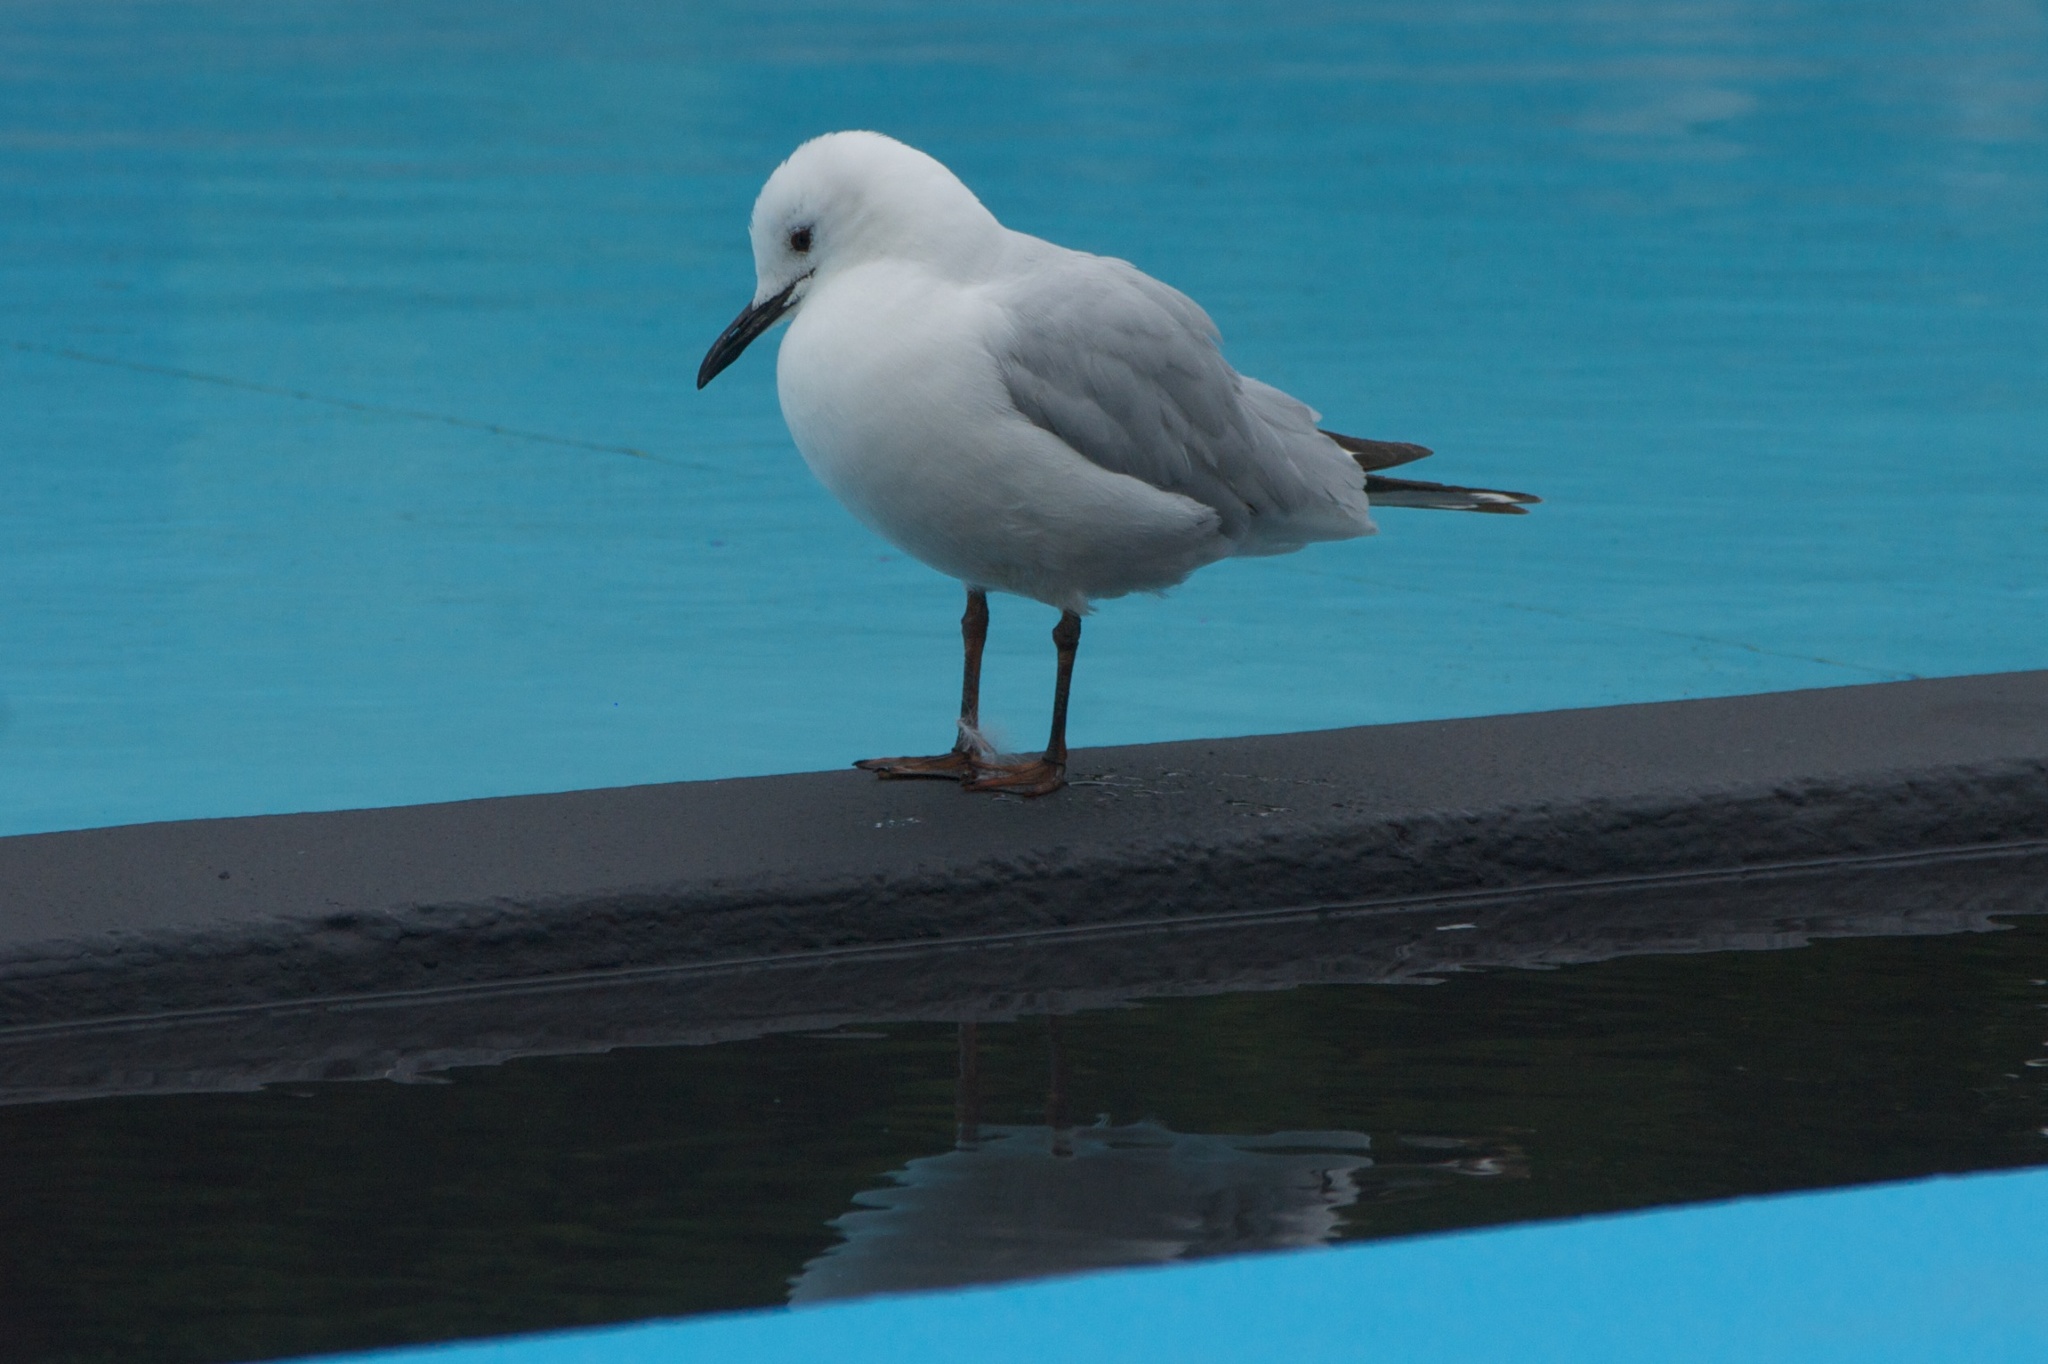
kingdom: Animalia
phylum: Chordata
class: Aves
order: Charadriiformes
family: Laridae
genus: Chroicocephalus
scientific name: Chroicocephalus bulleri
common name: Black-billed gull
